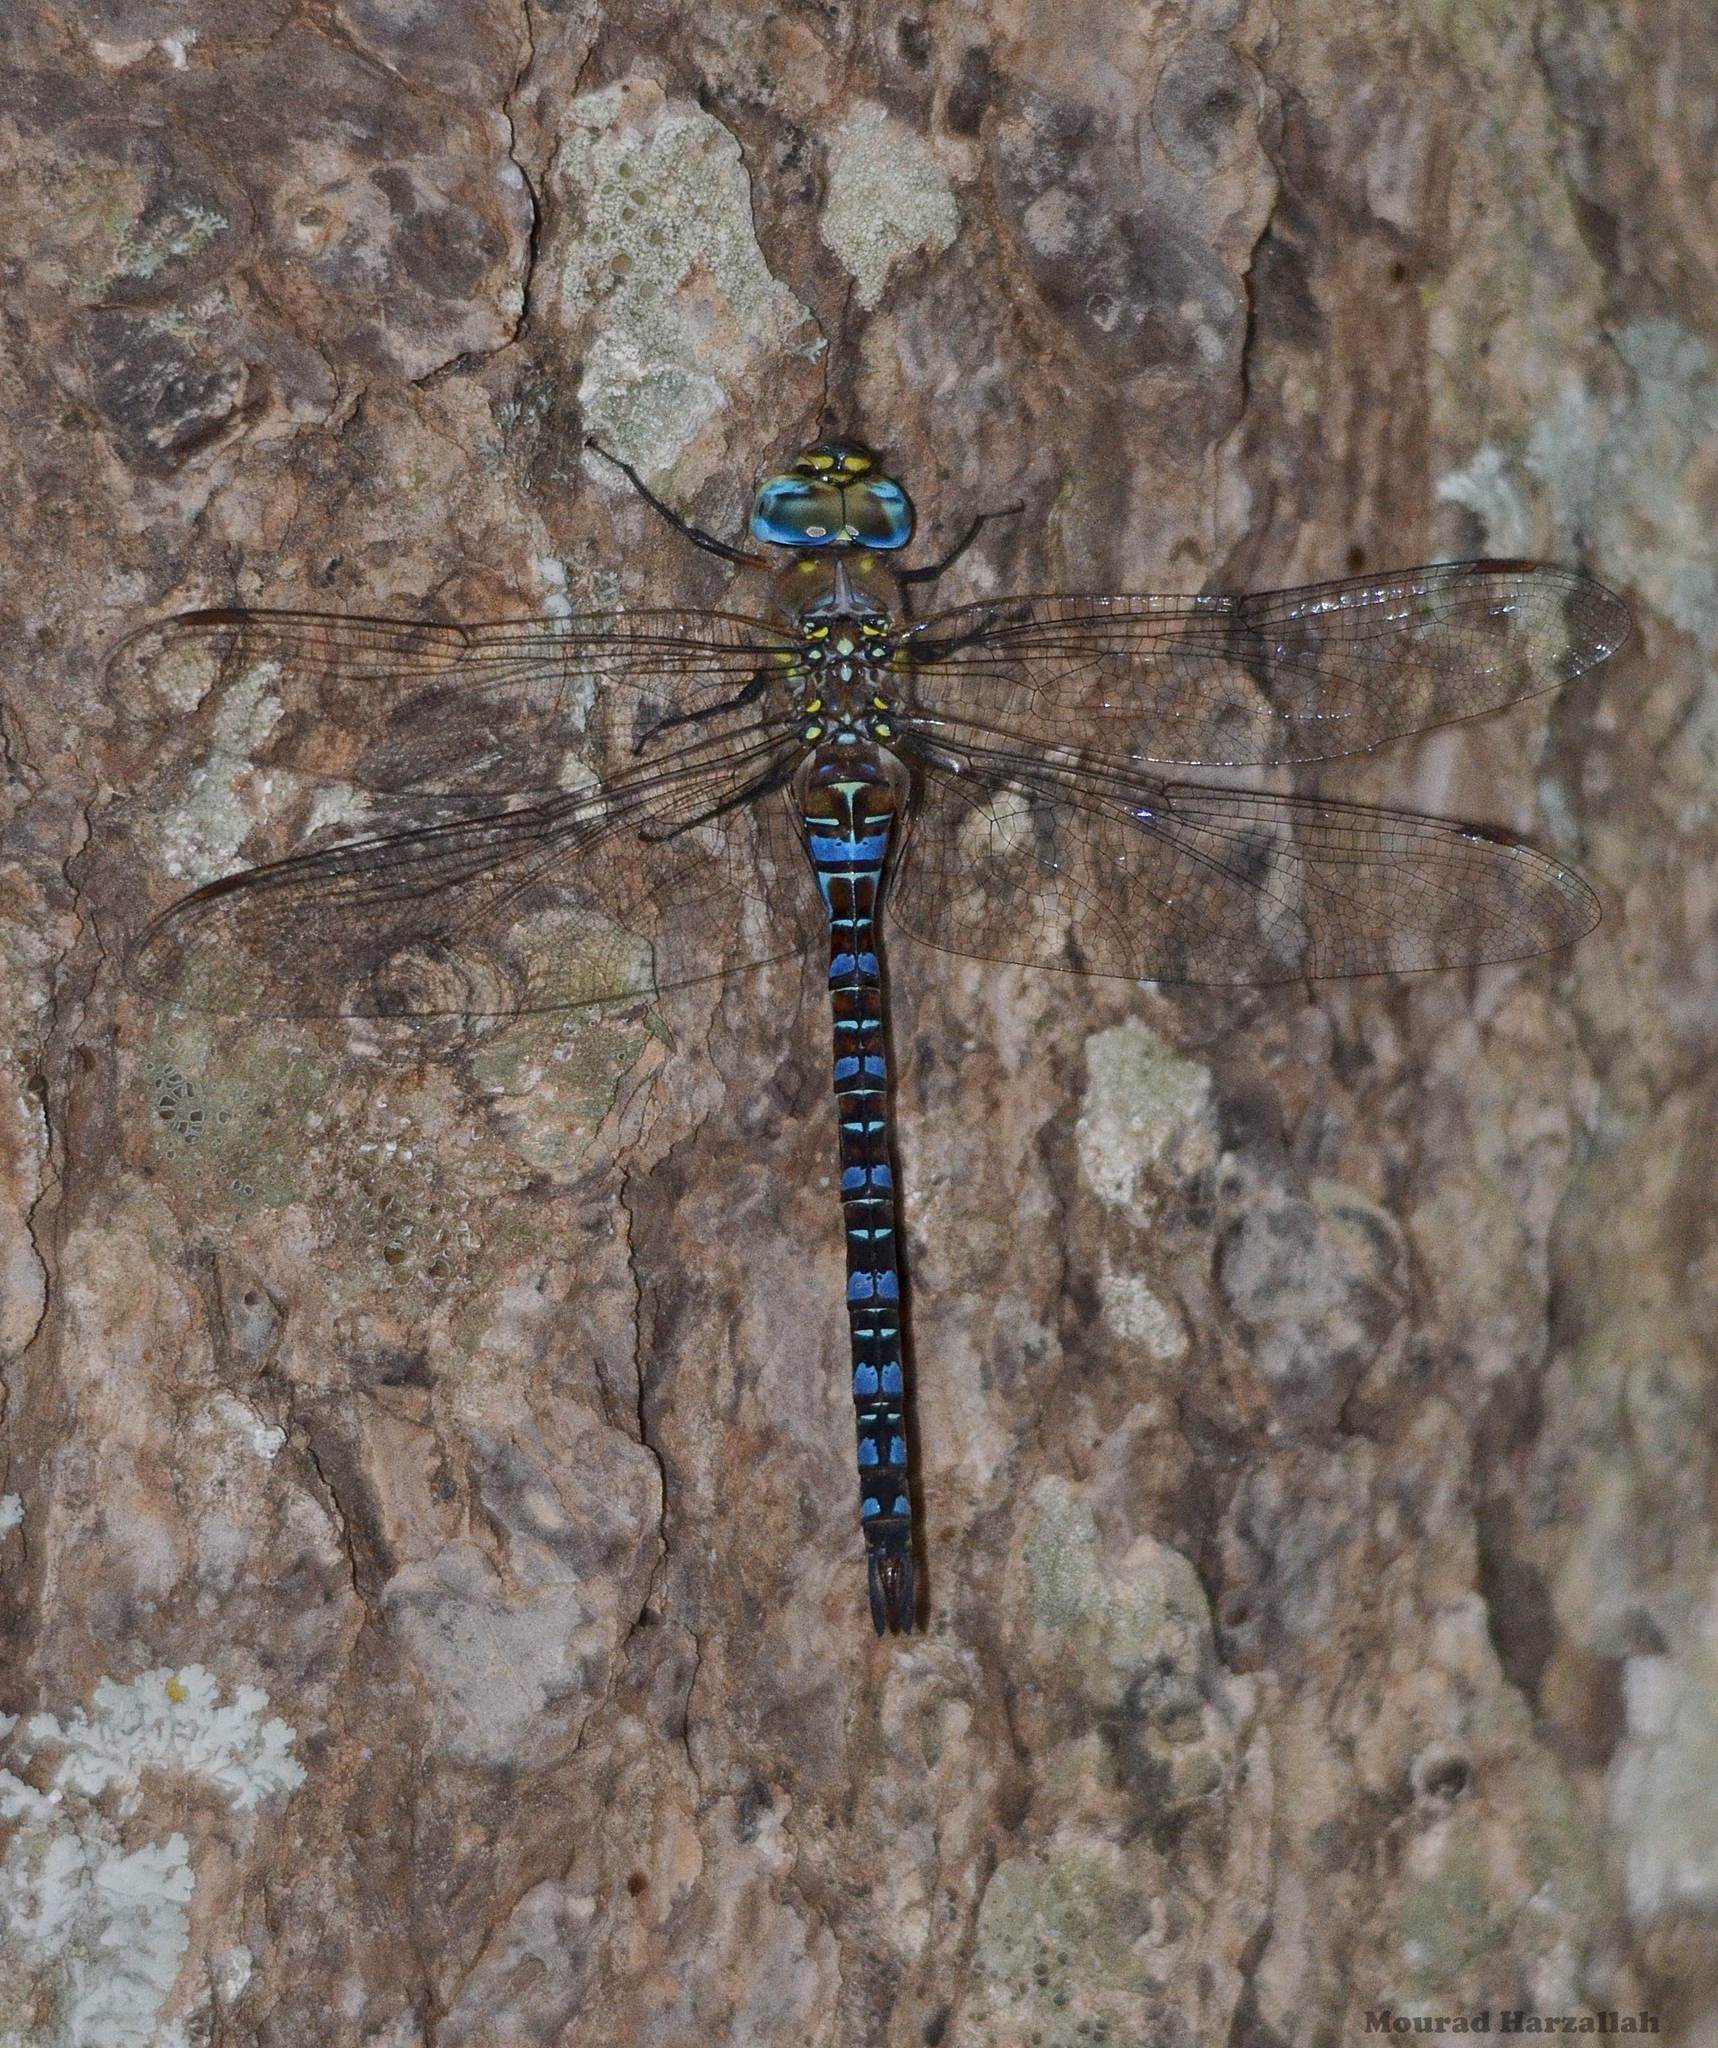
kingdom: Animalia
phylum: Arthropoda
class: Insecta
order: Odonata
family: Aeshnidae
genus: Aeshna
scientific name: Aeshna mixta
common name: Migrant hawker
